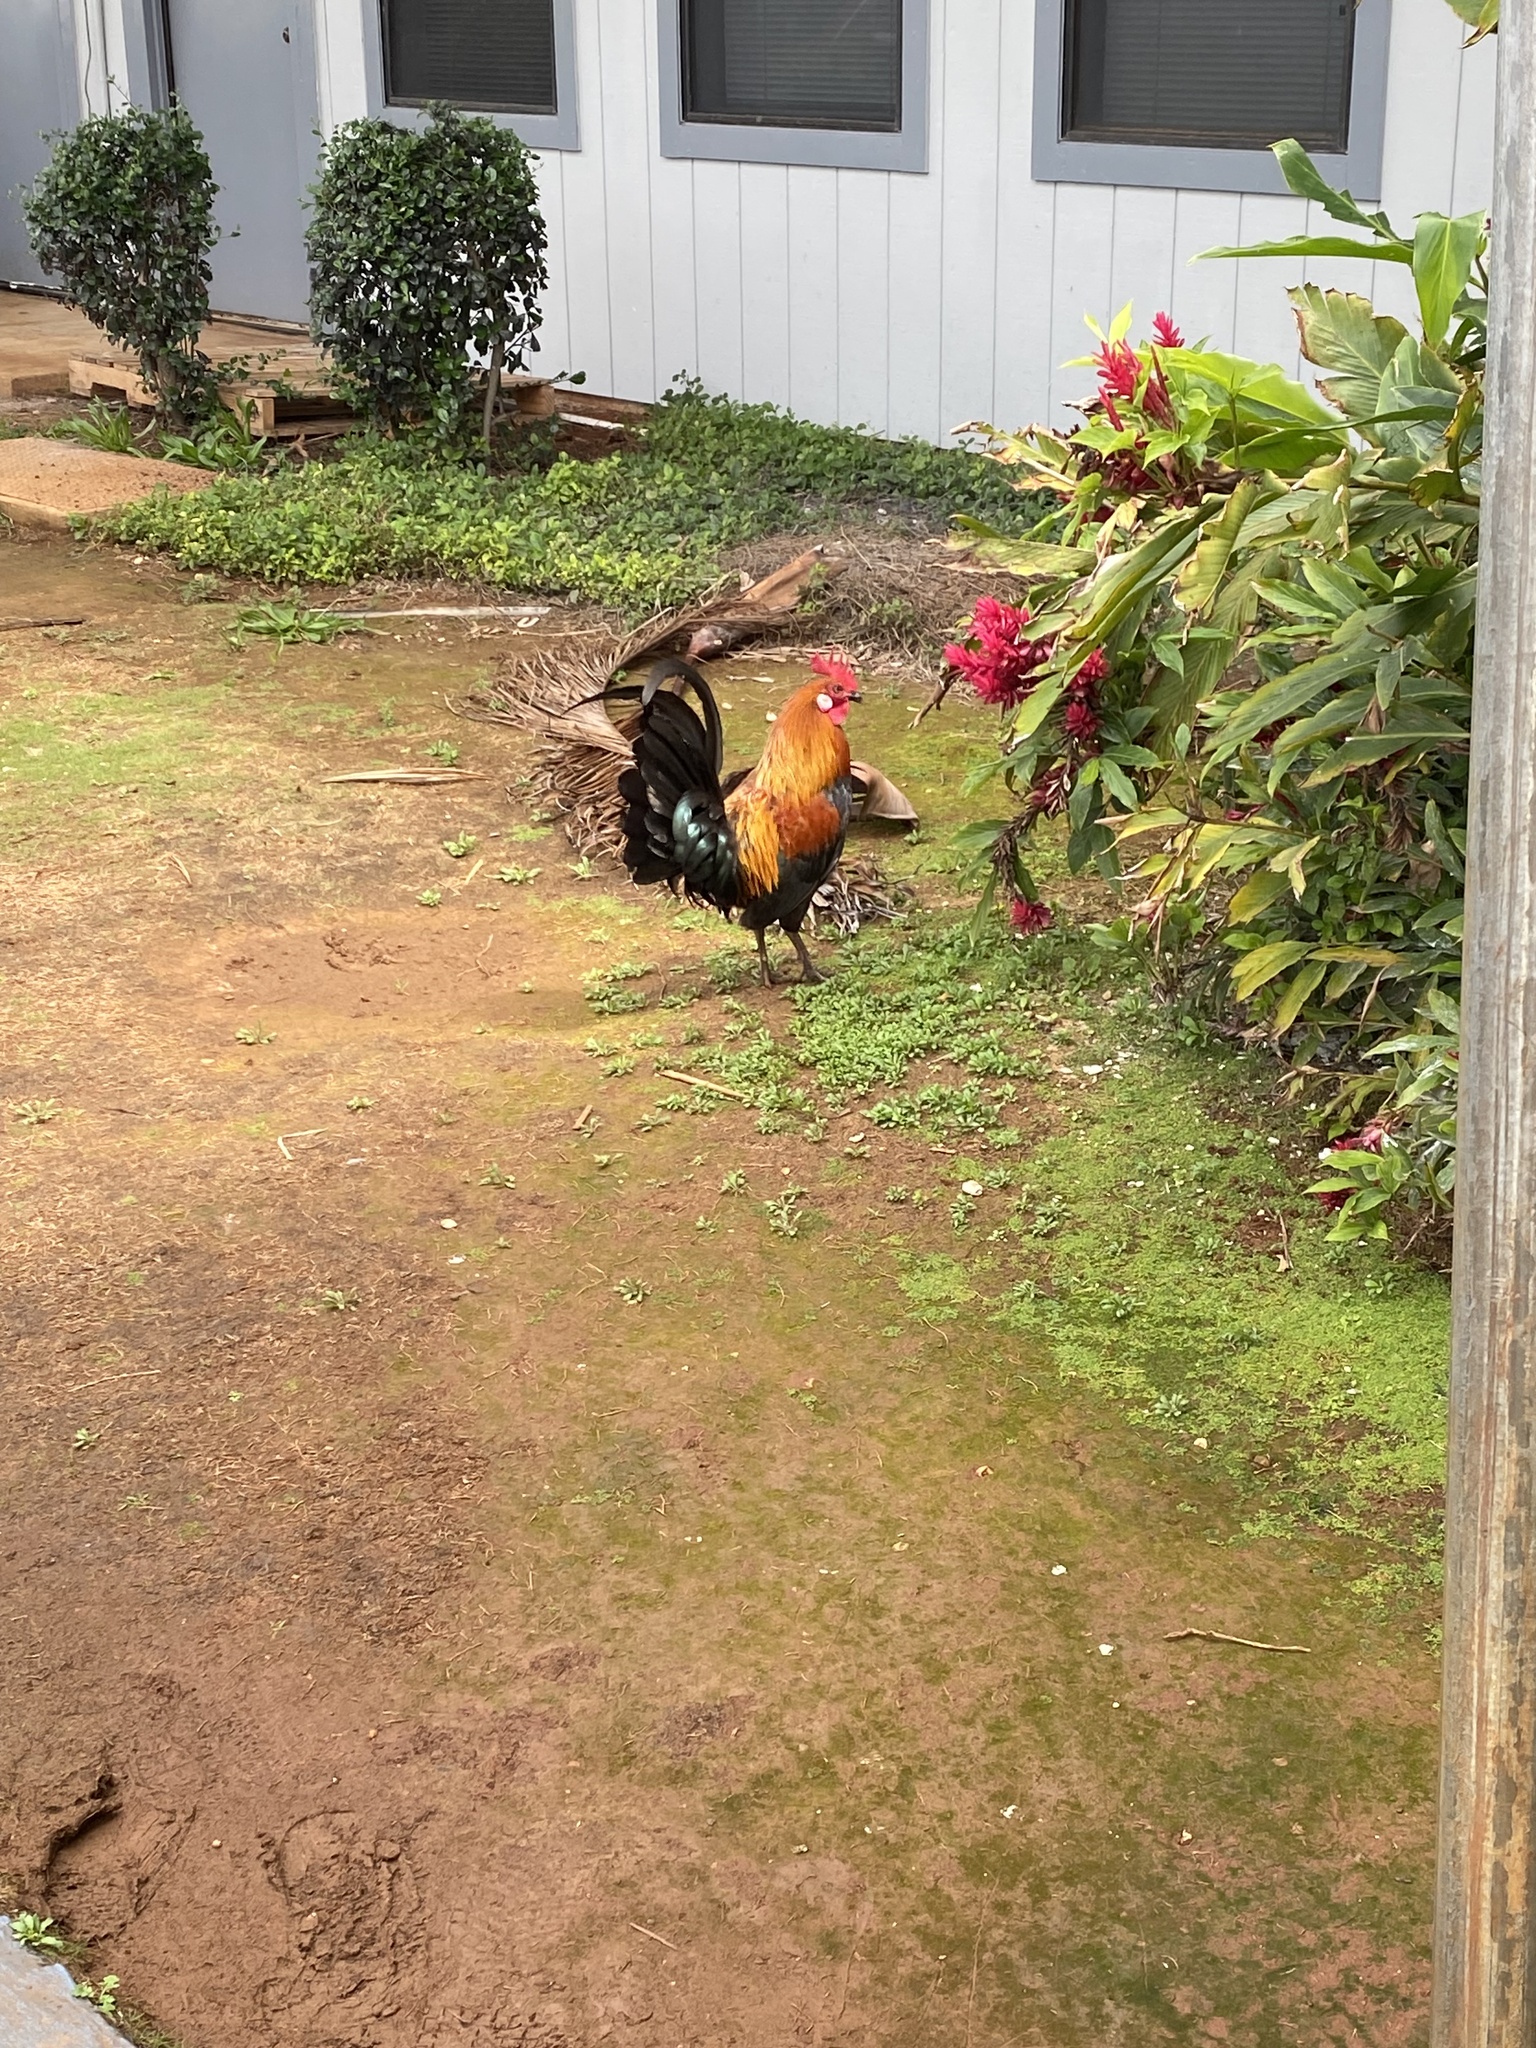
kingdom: Animalia
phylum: Chordata
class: Aves
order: Galliformes
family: Phasianidae
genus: Gallus
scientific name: Gallus gallus
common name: Red junglefowl
